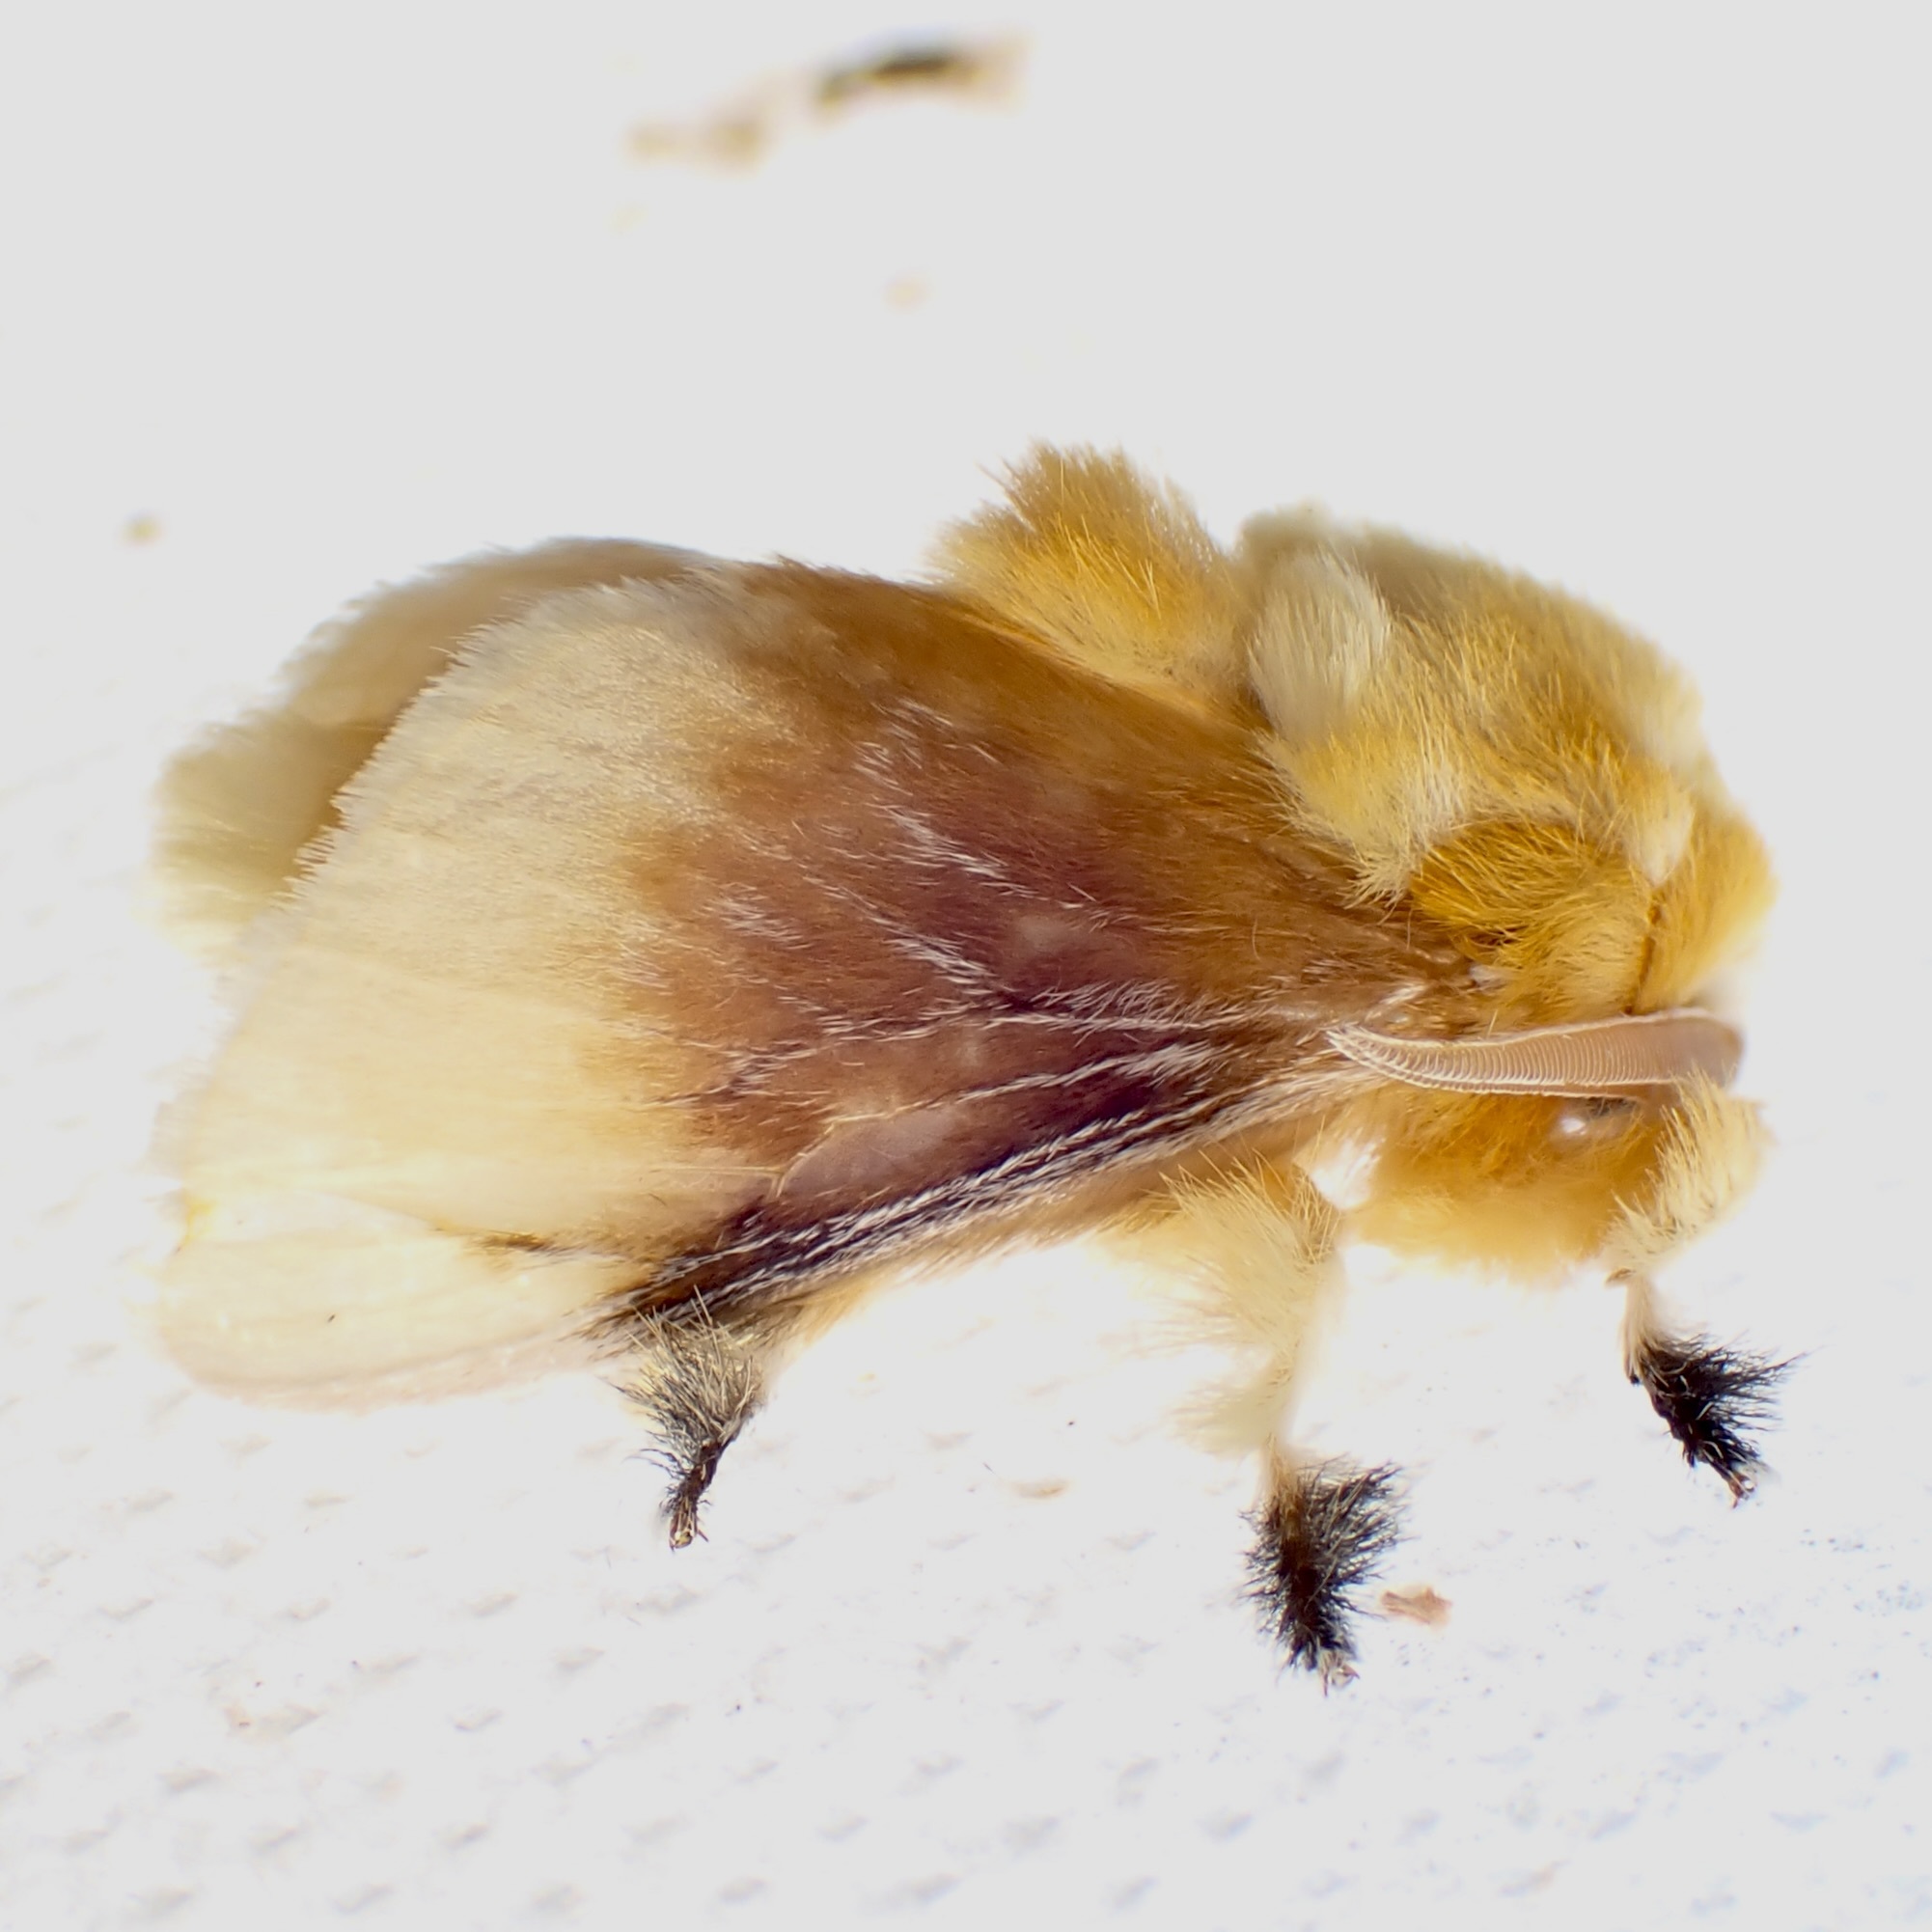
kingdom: Animalia
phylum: Arthropoda
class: Insecta
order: Lepidoptera
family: Megalopygidae
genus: Megalopyge
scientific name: Megalopyge opercularis
